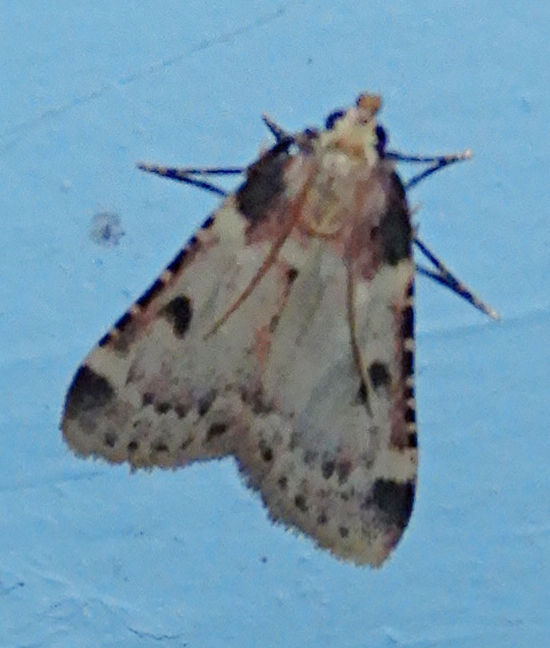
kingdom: Animalia
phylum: Arthropoda
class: Insecta
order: Lepidoptera
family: Pyralidae
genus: Aglossa
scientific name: Aglossa costiferalis
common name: Calico pyralid moth
